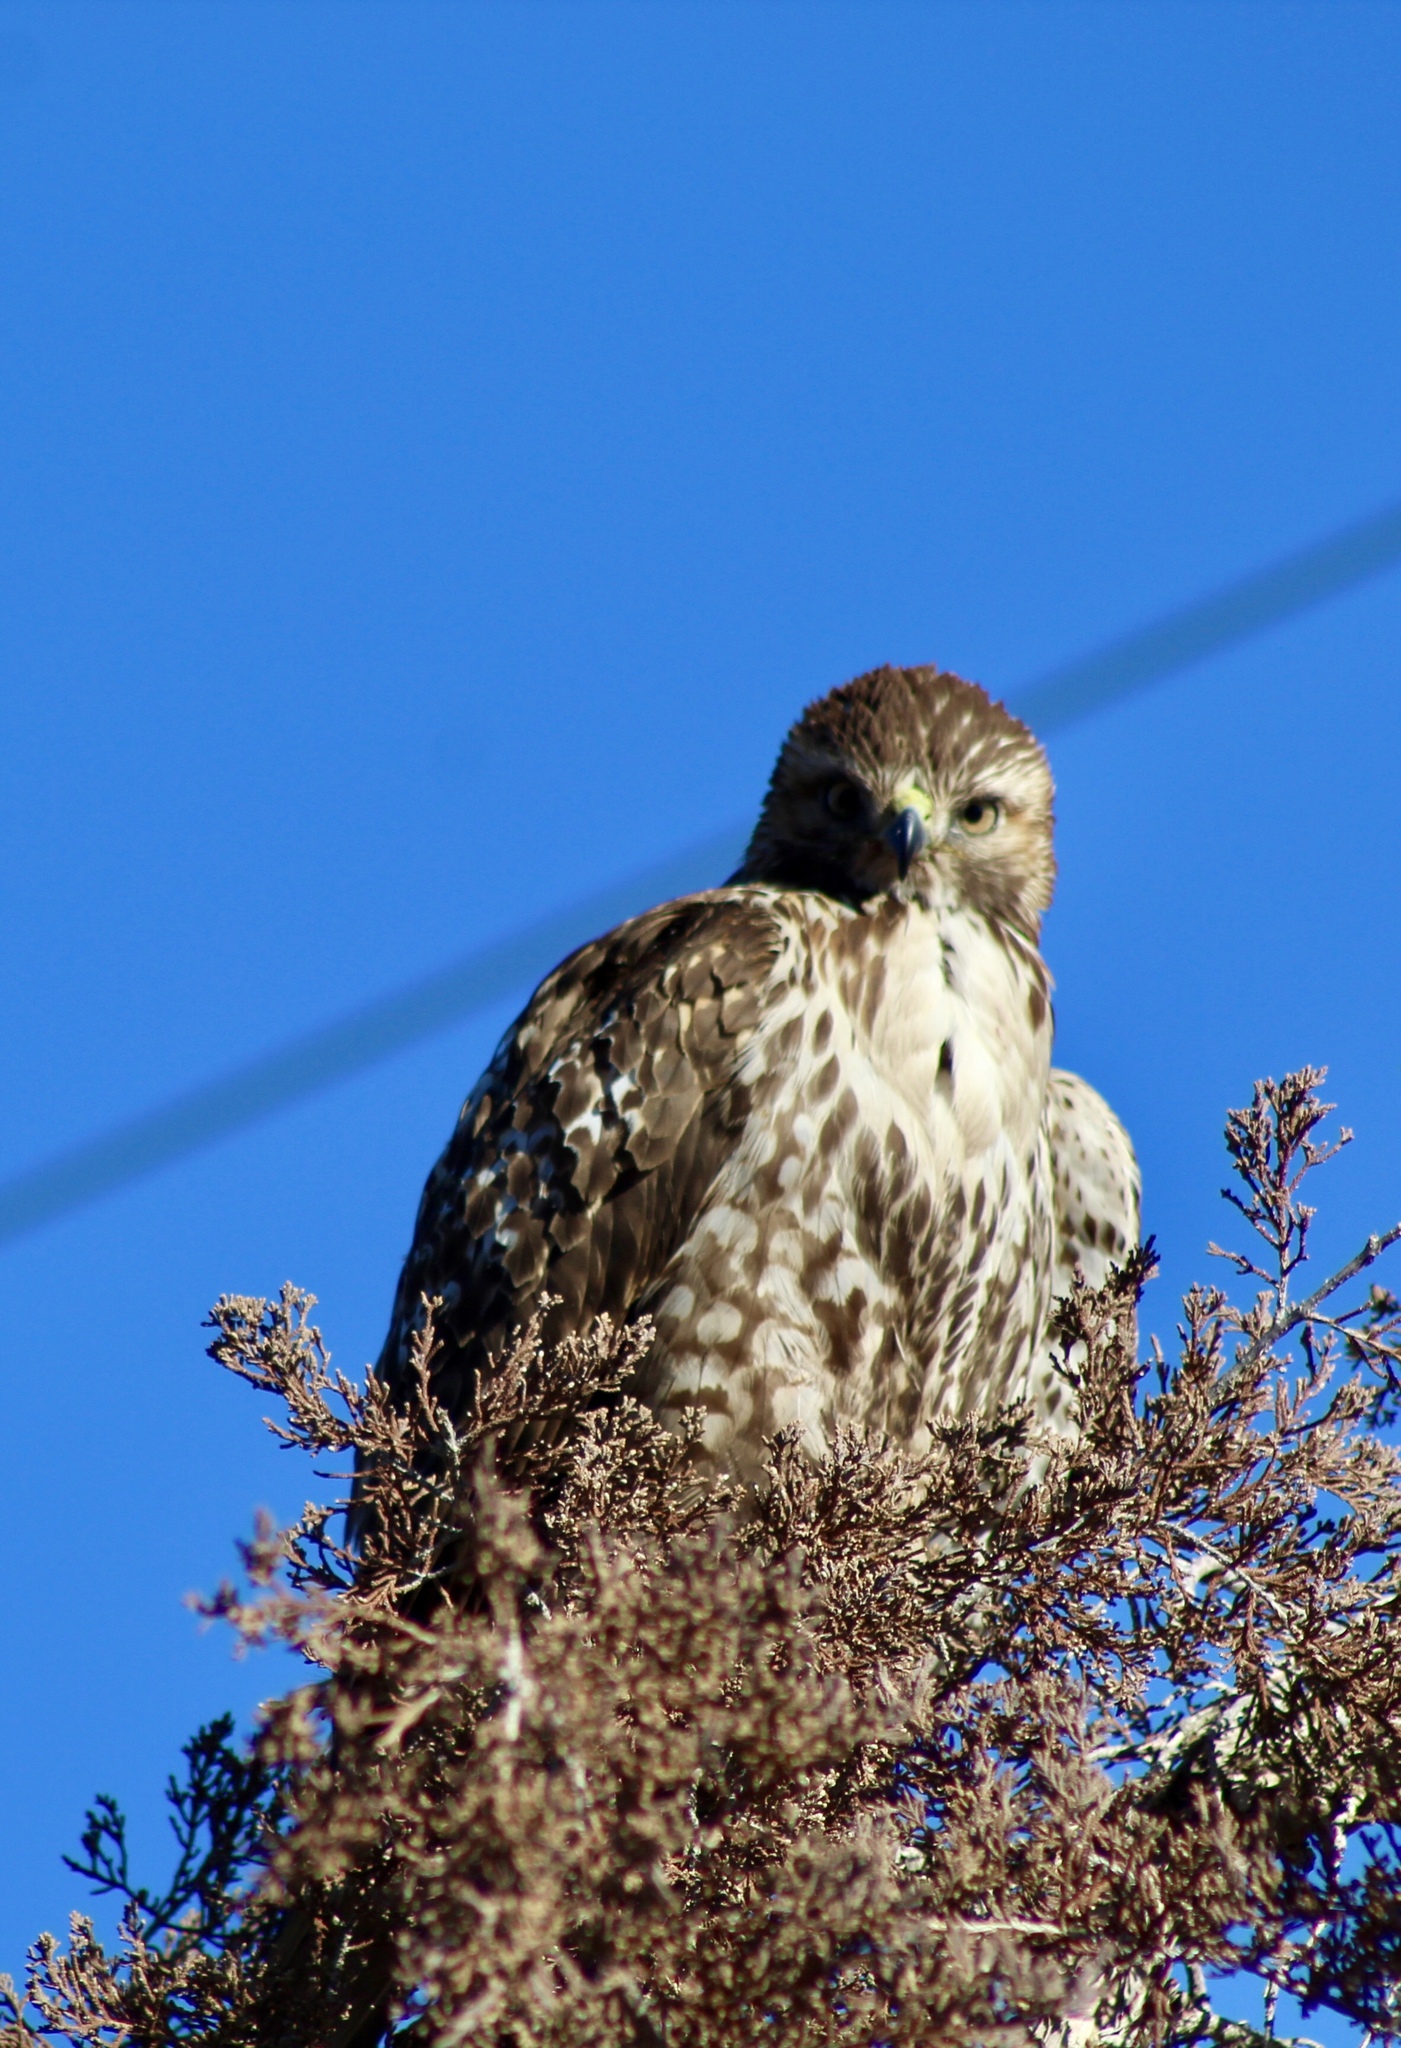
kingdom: Animalia
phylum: Chordata
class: Aves
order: Accipitriformes
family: Accipitridae
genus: Buteo
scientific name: Buteo jamaicensis
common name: Red-tailed hawk
